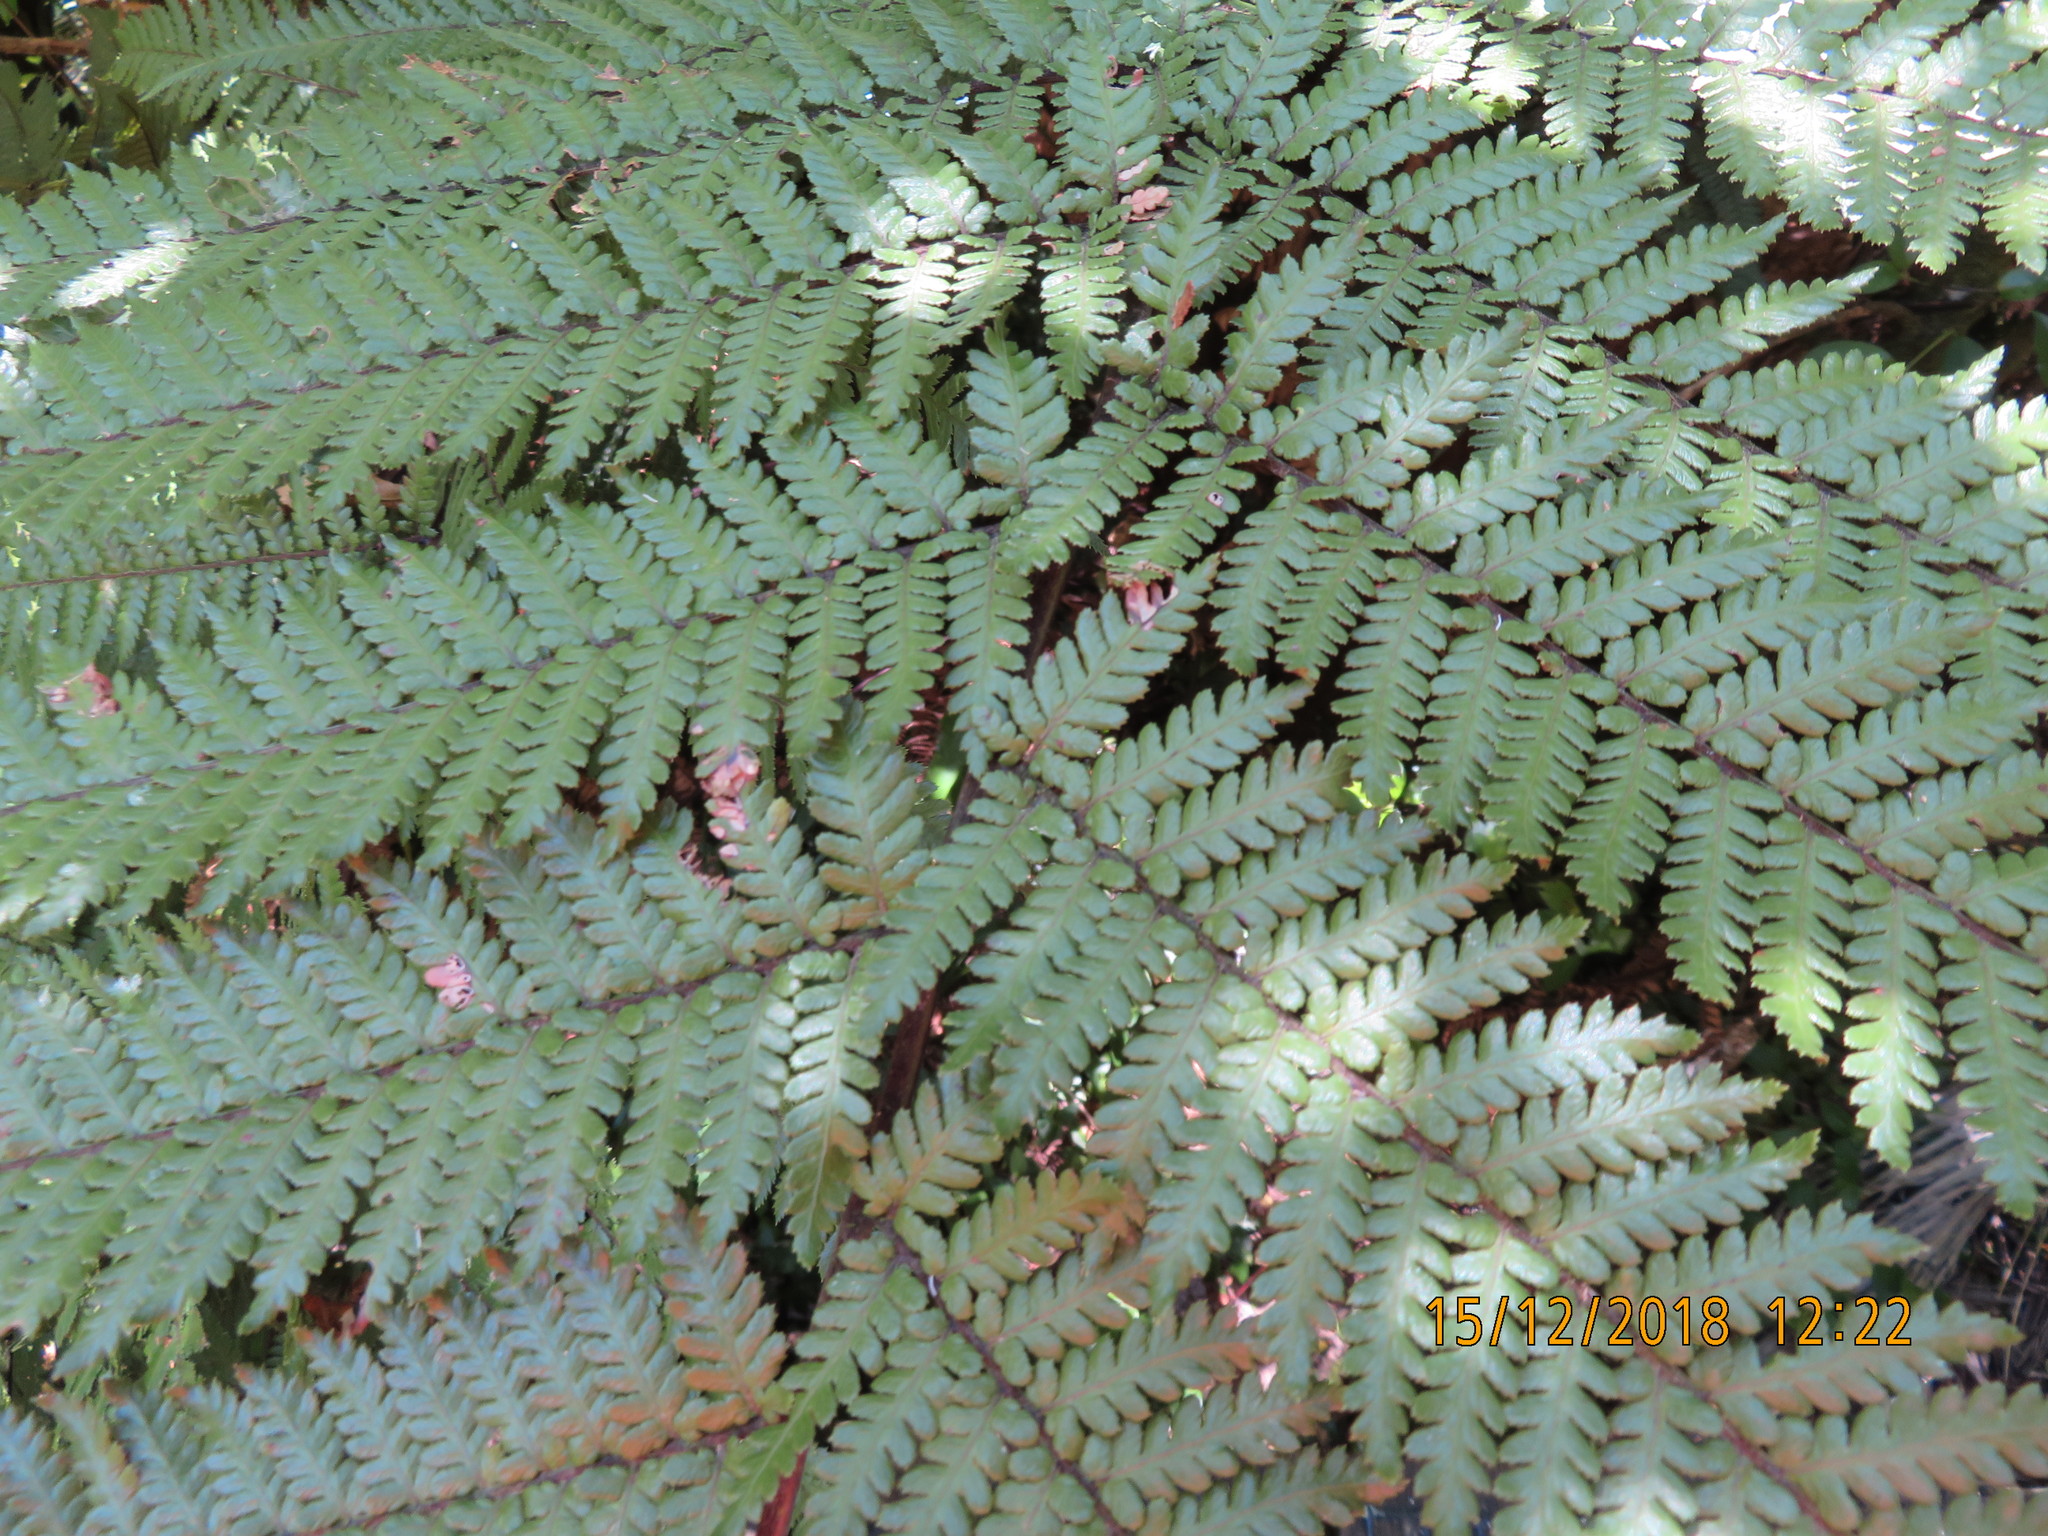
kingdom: Plantae
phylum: Tracheophyta
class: Polypodiopsida
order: Cyatheales
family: Dicksoniaceae
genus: Dicksonia
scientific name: Dicksonia squarrosa
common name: Hard treefern
